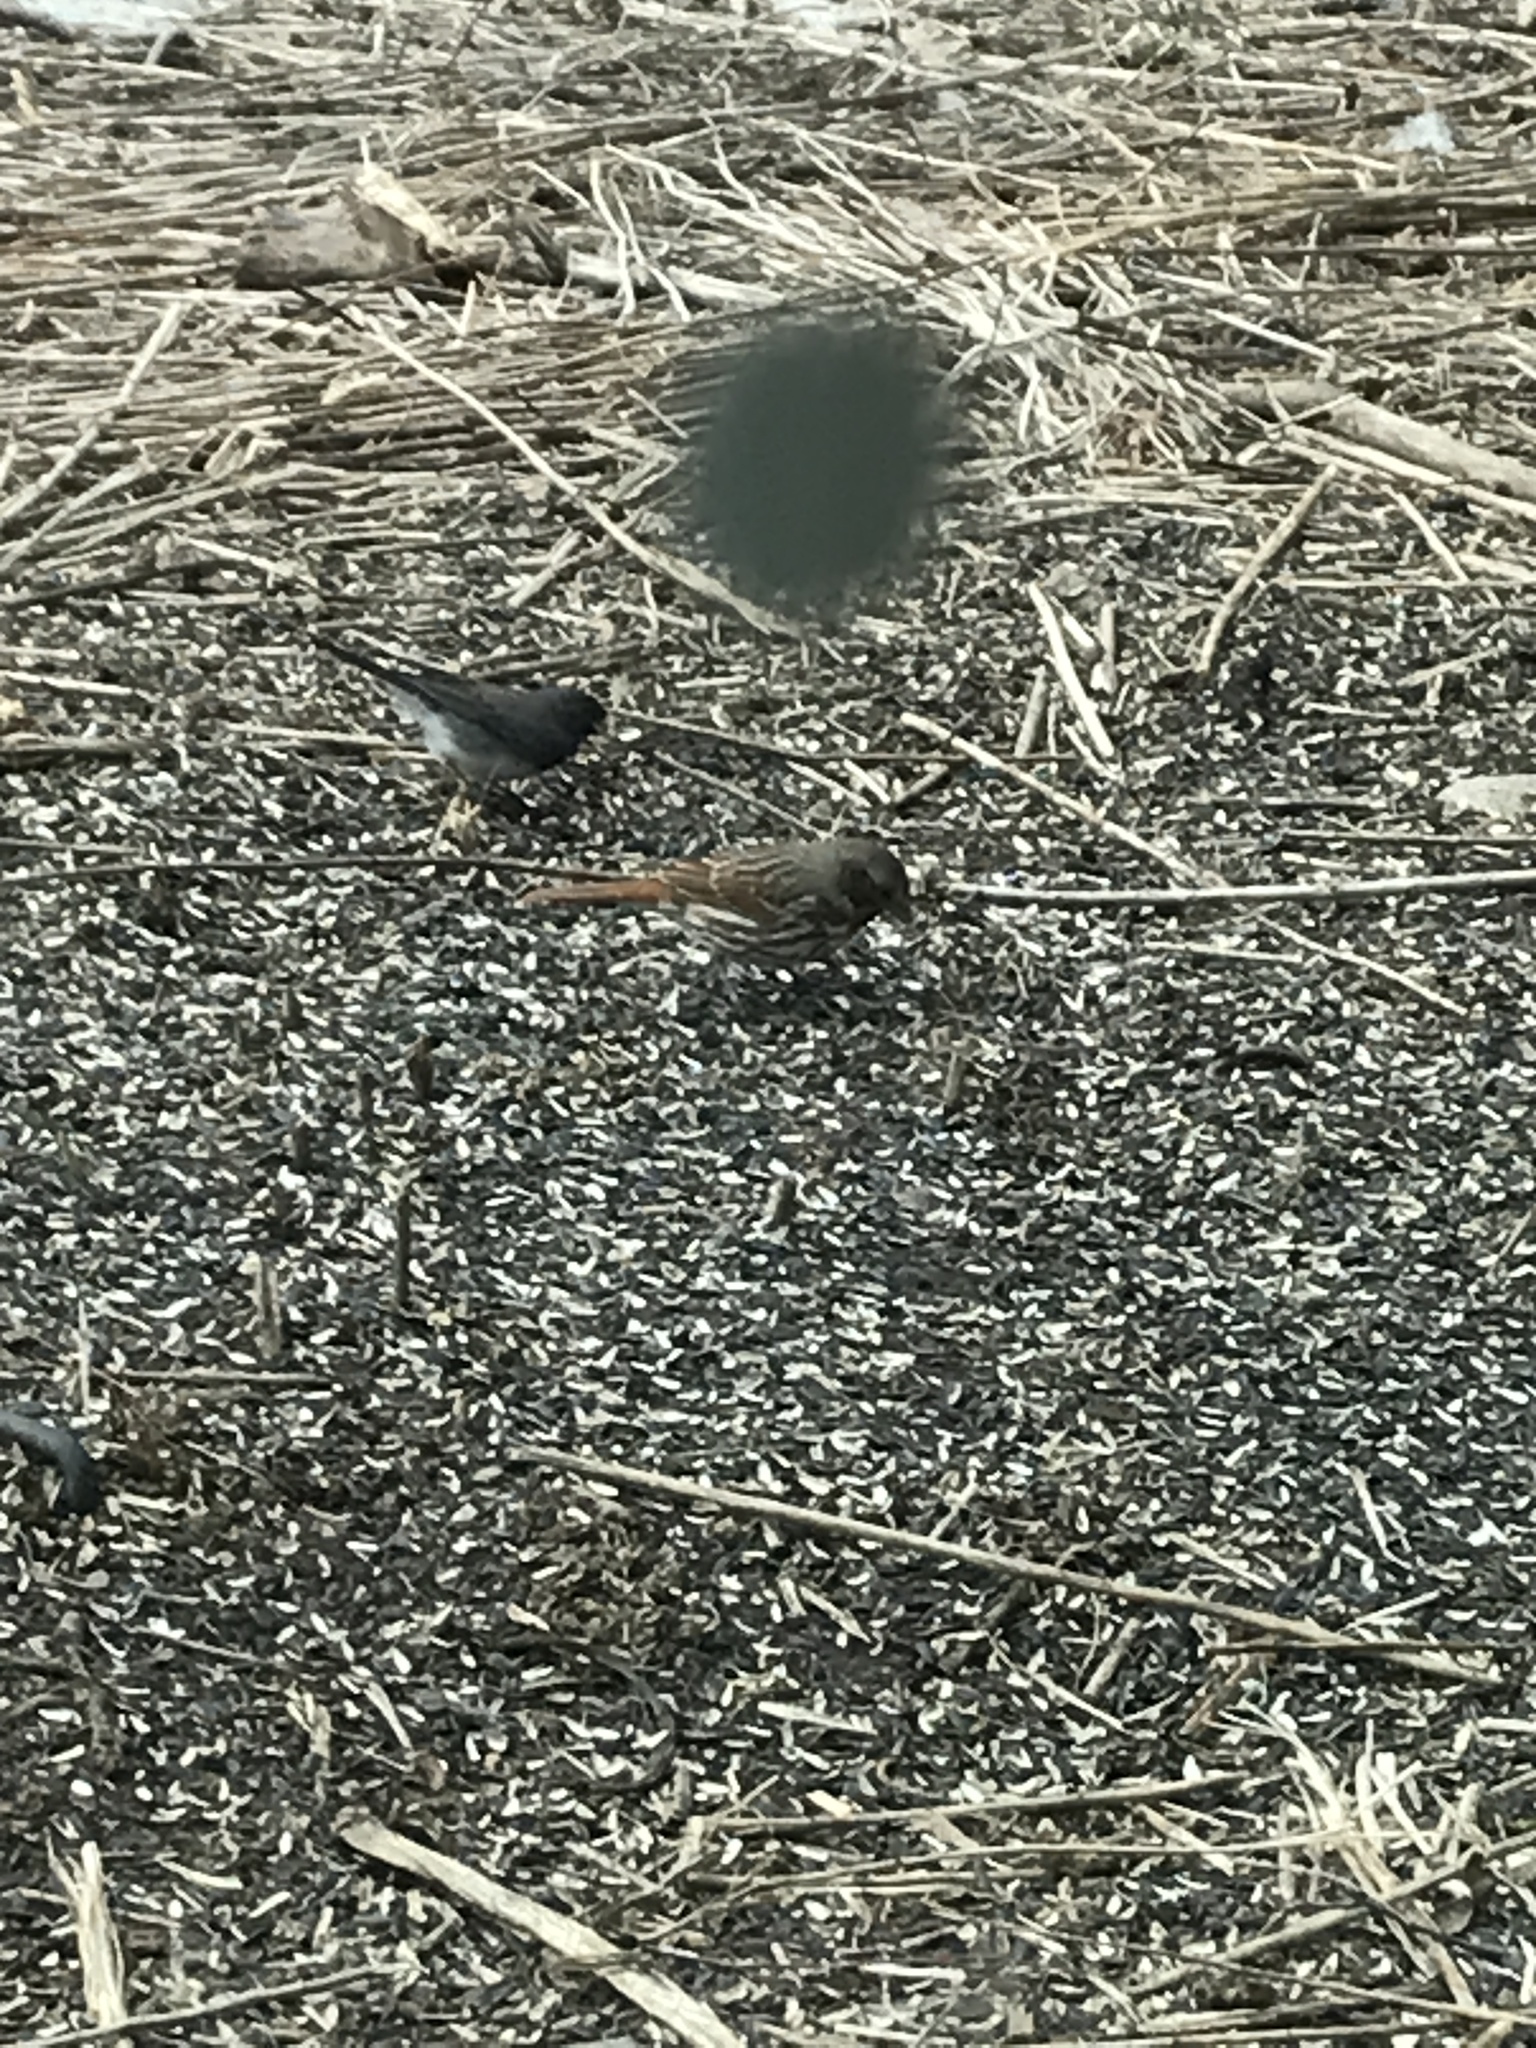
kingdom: Animalia
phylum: Chordata
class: Aves
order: Passeriformes
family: Passerellidae
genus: Passerella
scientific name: Passerella iliaca
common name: Fox sparrow
